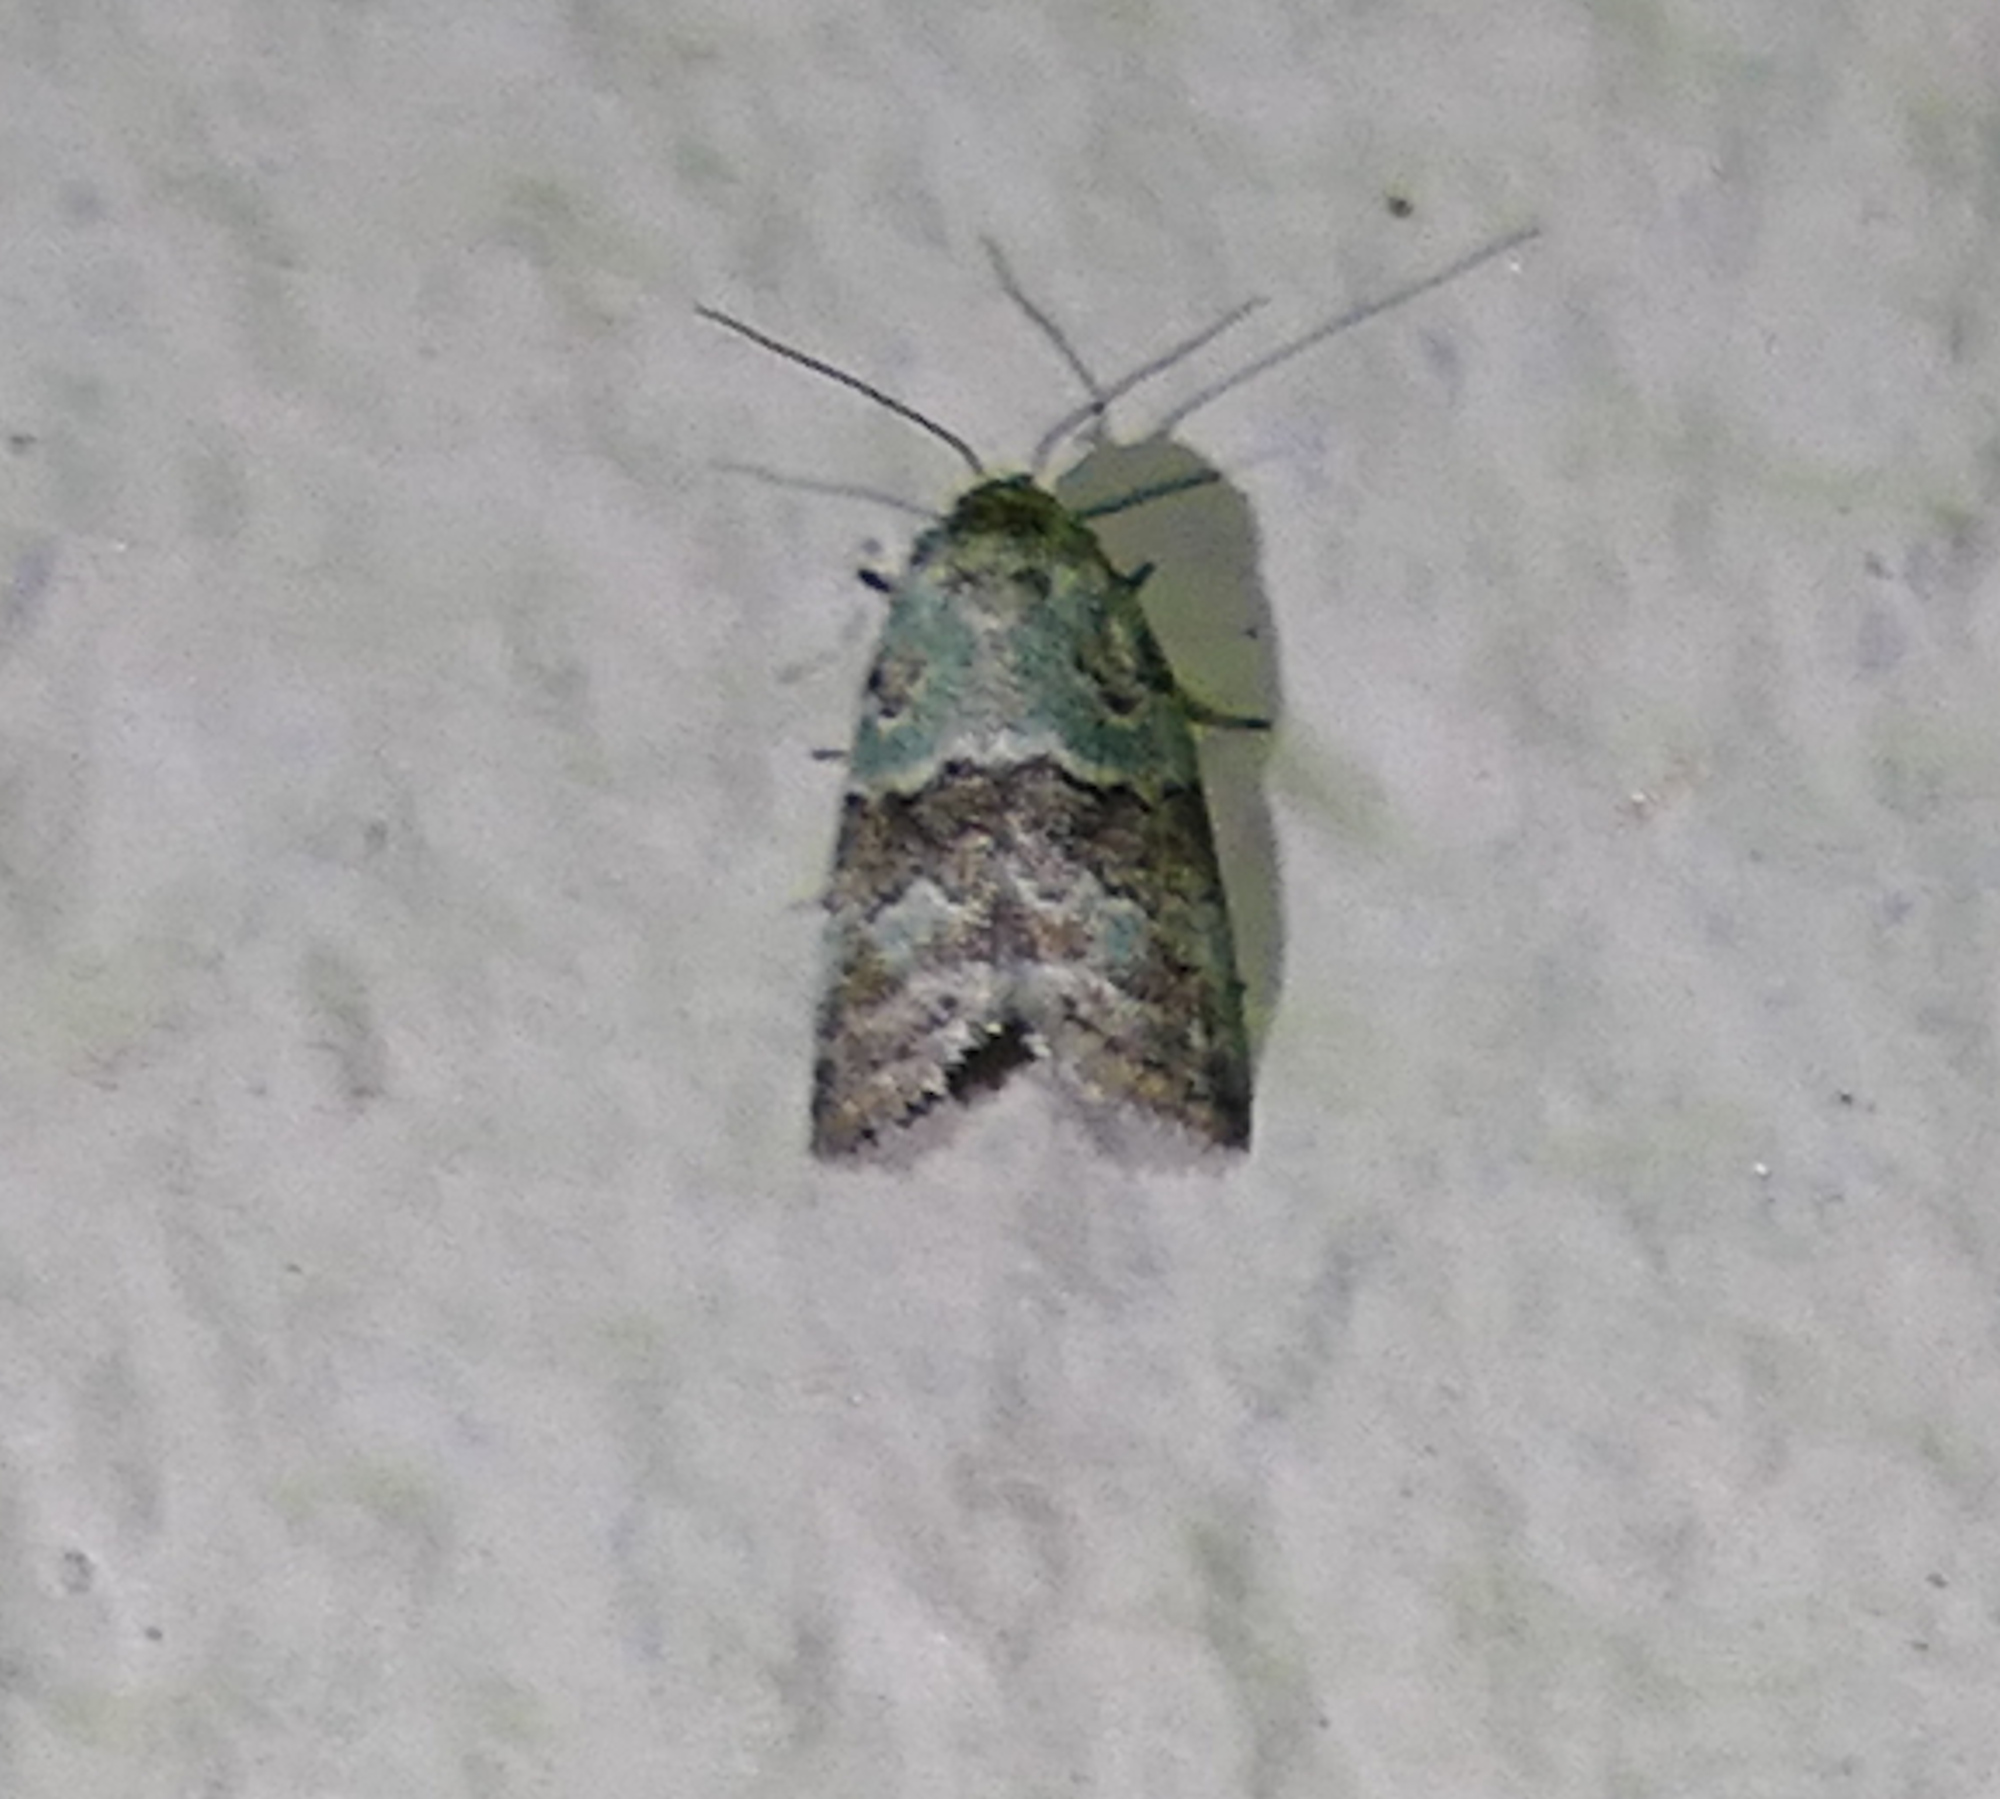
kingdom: Animalia
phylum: Arthropoda
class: Insecta
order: Lepidoptera
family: Nolidae
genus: Afrida
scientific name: Afrida ydatodes
